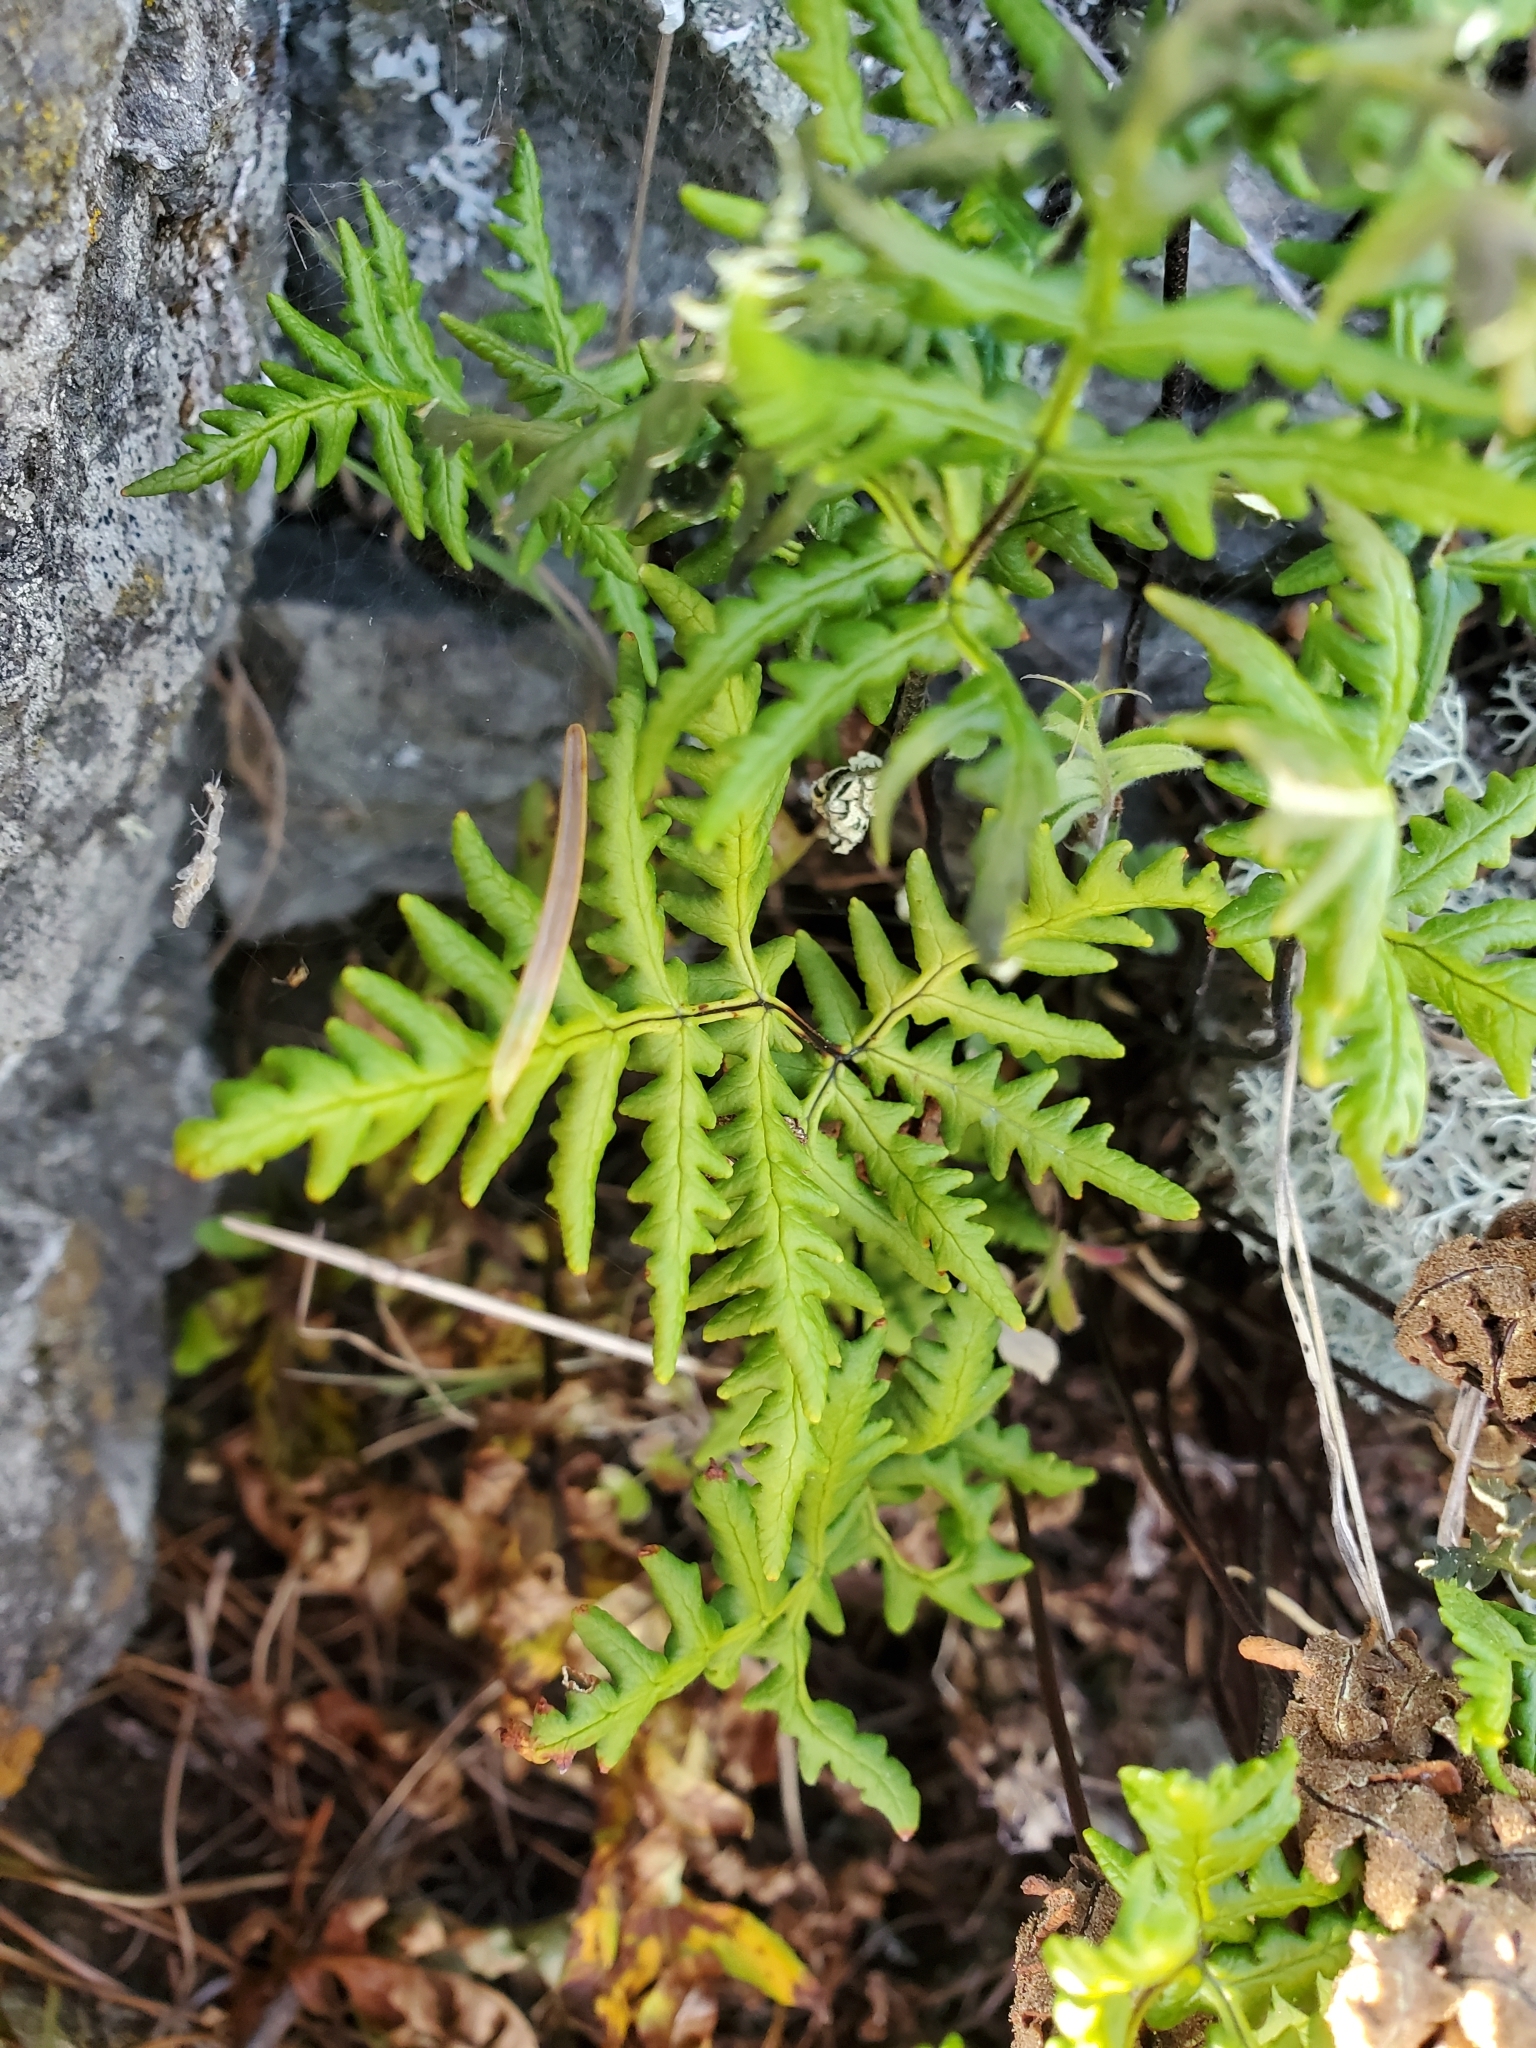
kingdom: Plantae
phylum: Tracheophyta
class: Polypodiopsida
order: Polypodiales
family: Pteridaceae
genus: Pentagramma
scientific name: Pentagramma triangularis
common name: Gold fern
